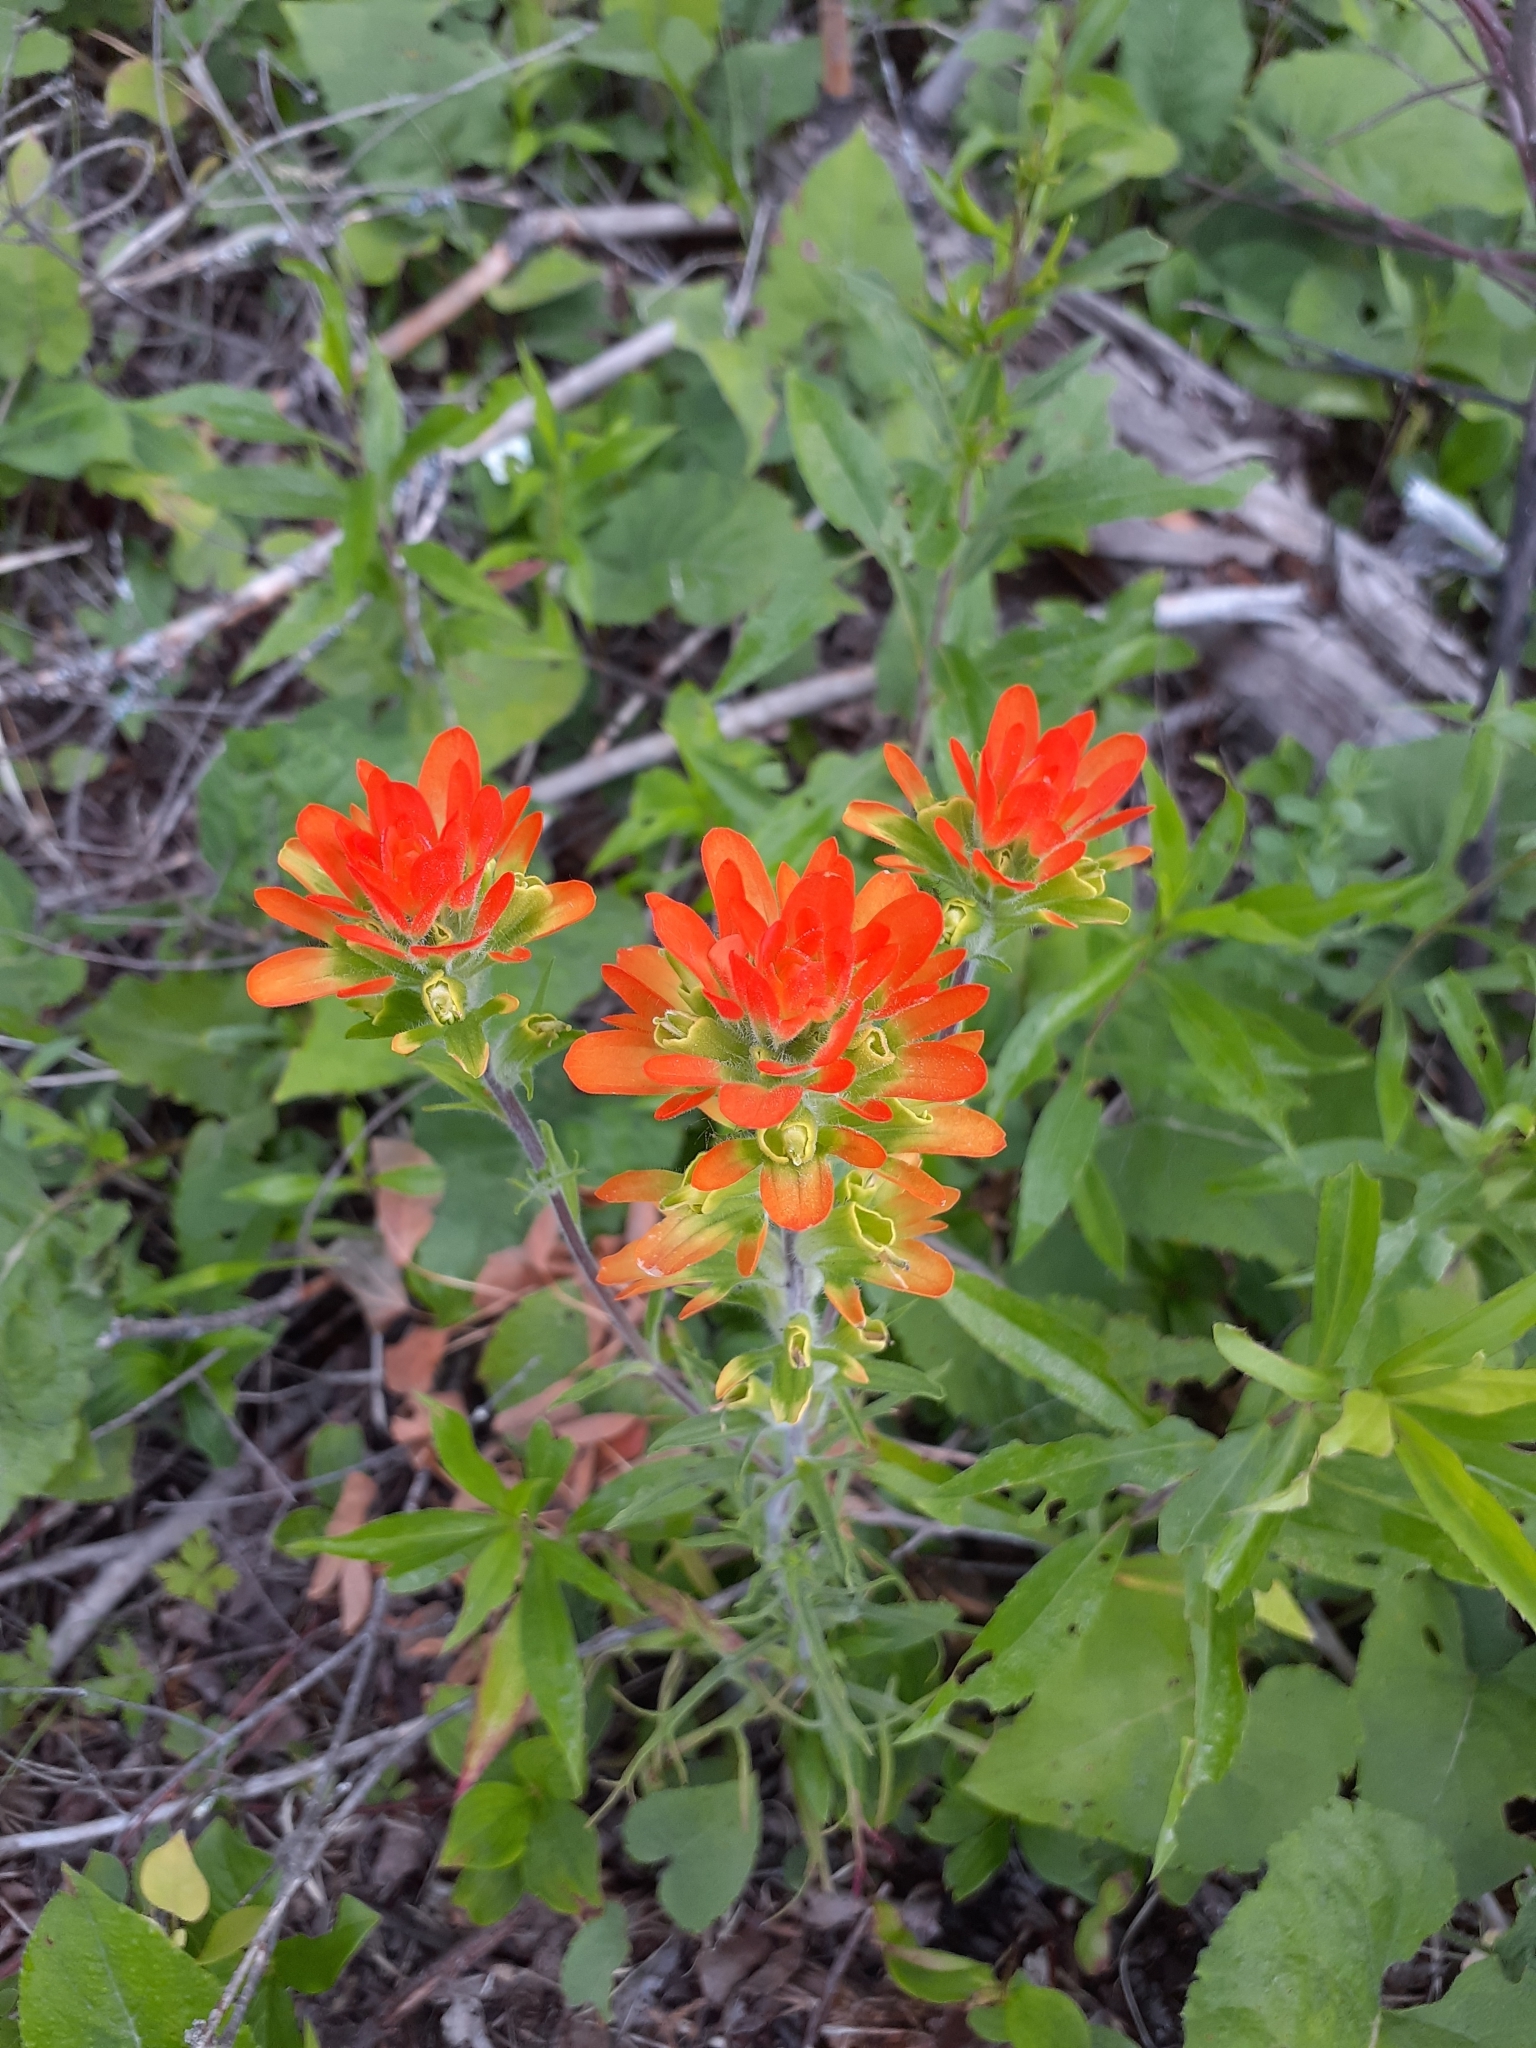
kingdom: Plantae
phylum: Tracheophyta
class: Magnoliopsida
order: Lamiales
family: Orobanchaceae
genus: Castilleja
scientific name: Castilleja coccinea
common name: Scarlet paintbrush
